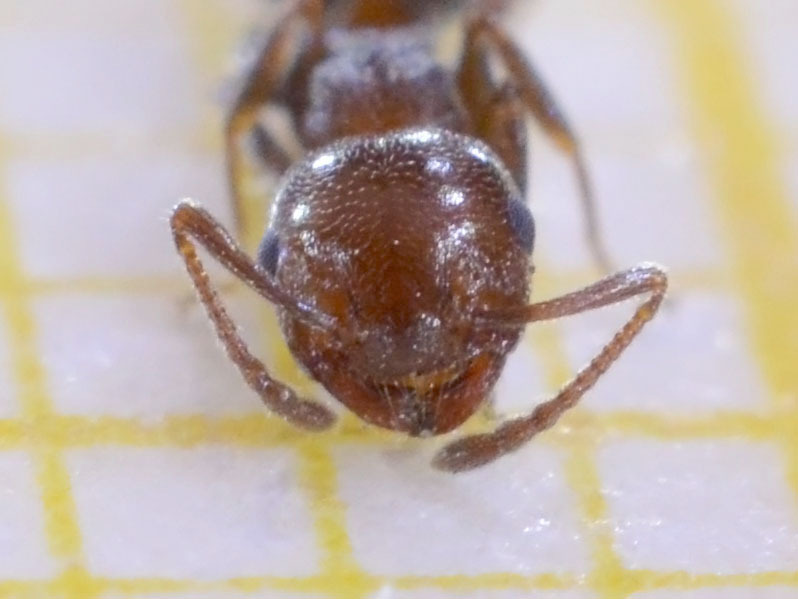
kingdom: Animalia
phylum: Arthropoda
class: Insecta
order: Hymenoptera
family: Formicidae
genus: Crematogaster
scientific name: Crematogaster schmidti
